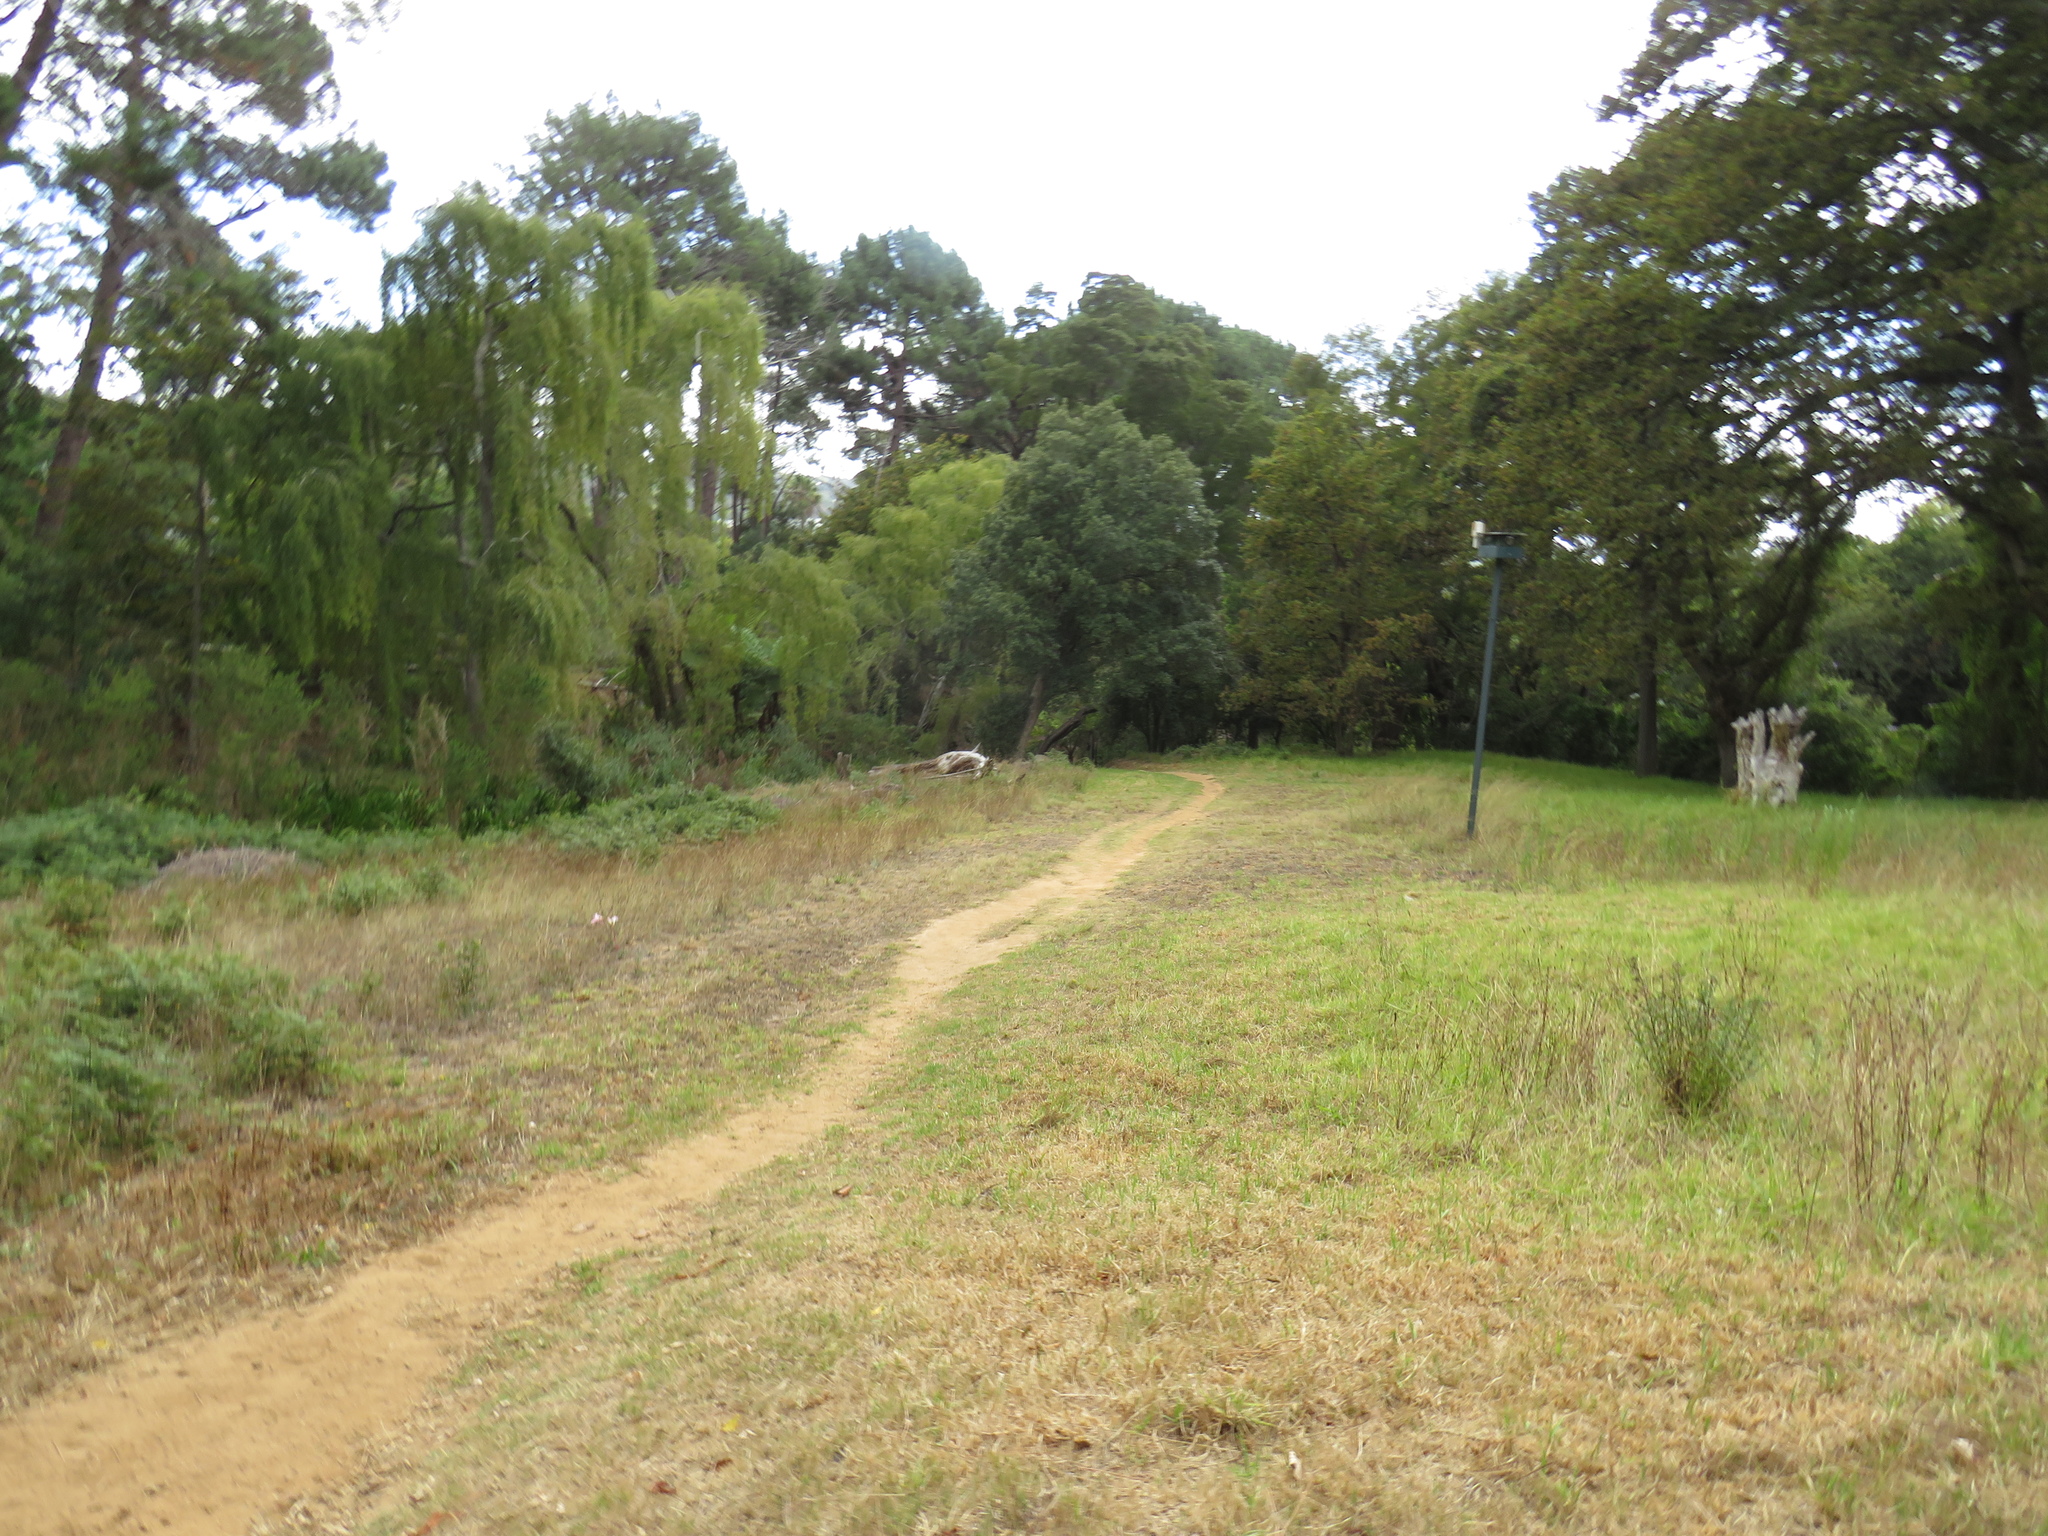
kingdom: Plantae
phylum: Tracheophyta
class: Liliopsida
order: Asparagales
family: Amaryllidaceae
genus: Amaryllis
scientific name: Amaryllis belladonna
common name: Jersey lily
